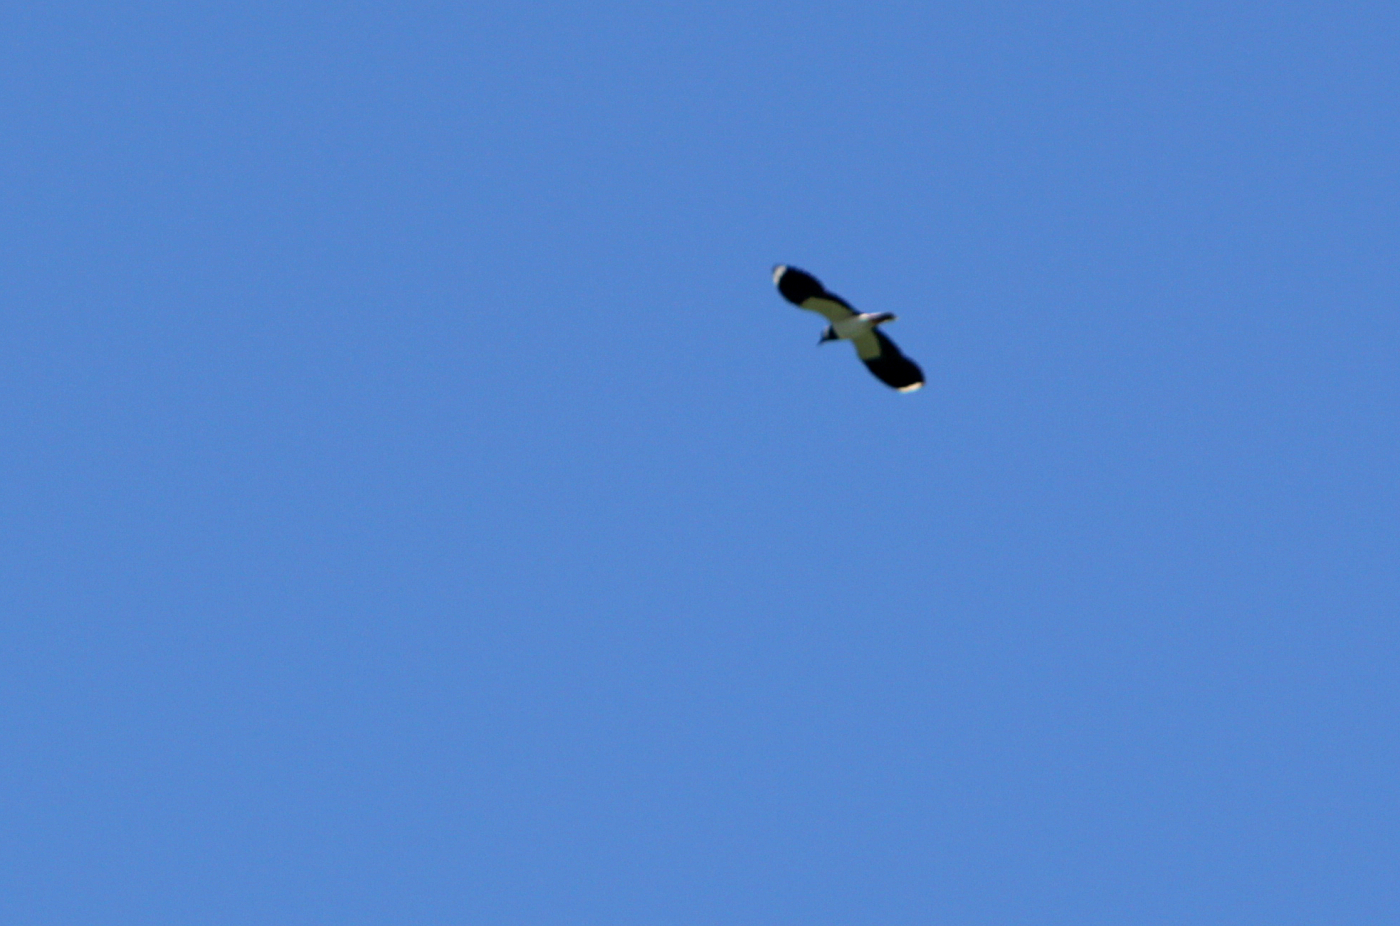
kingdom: Animalia
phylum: Chordata
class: Aves
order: Charadriiformes
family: Charadriidae
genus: Vanellus
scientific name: Vanellus vanellus
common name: Northern lapwing
